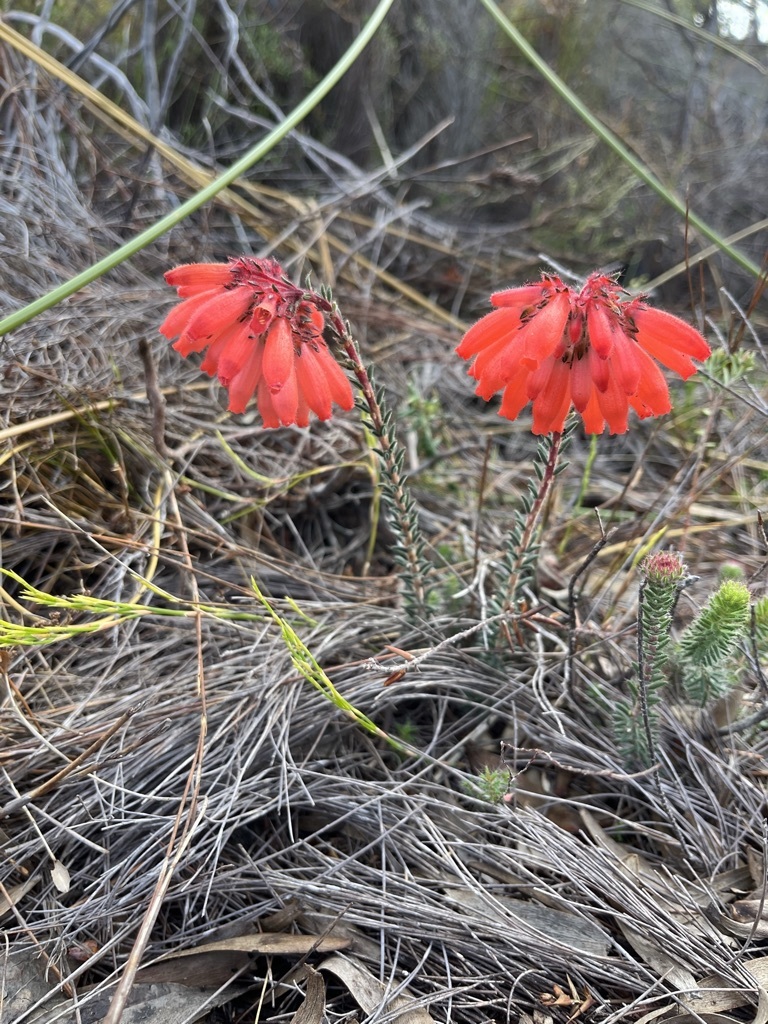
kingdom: Plantae
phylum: Tracheophyta
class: Magnoliopsida
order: Ericales
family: Ericaceae
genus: Erica
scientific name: Erica cerinthoides
